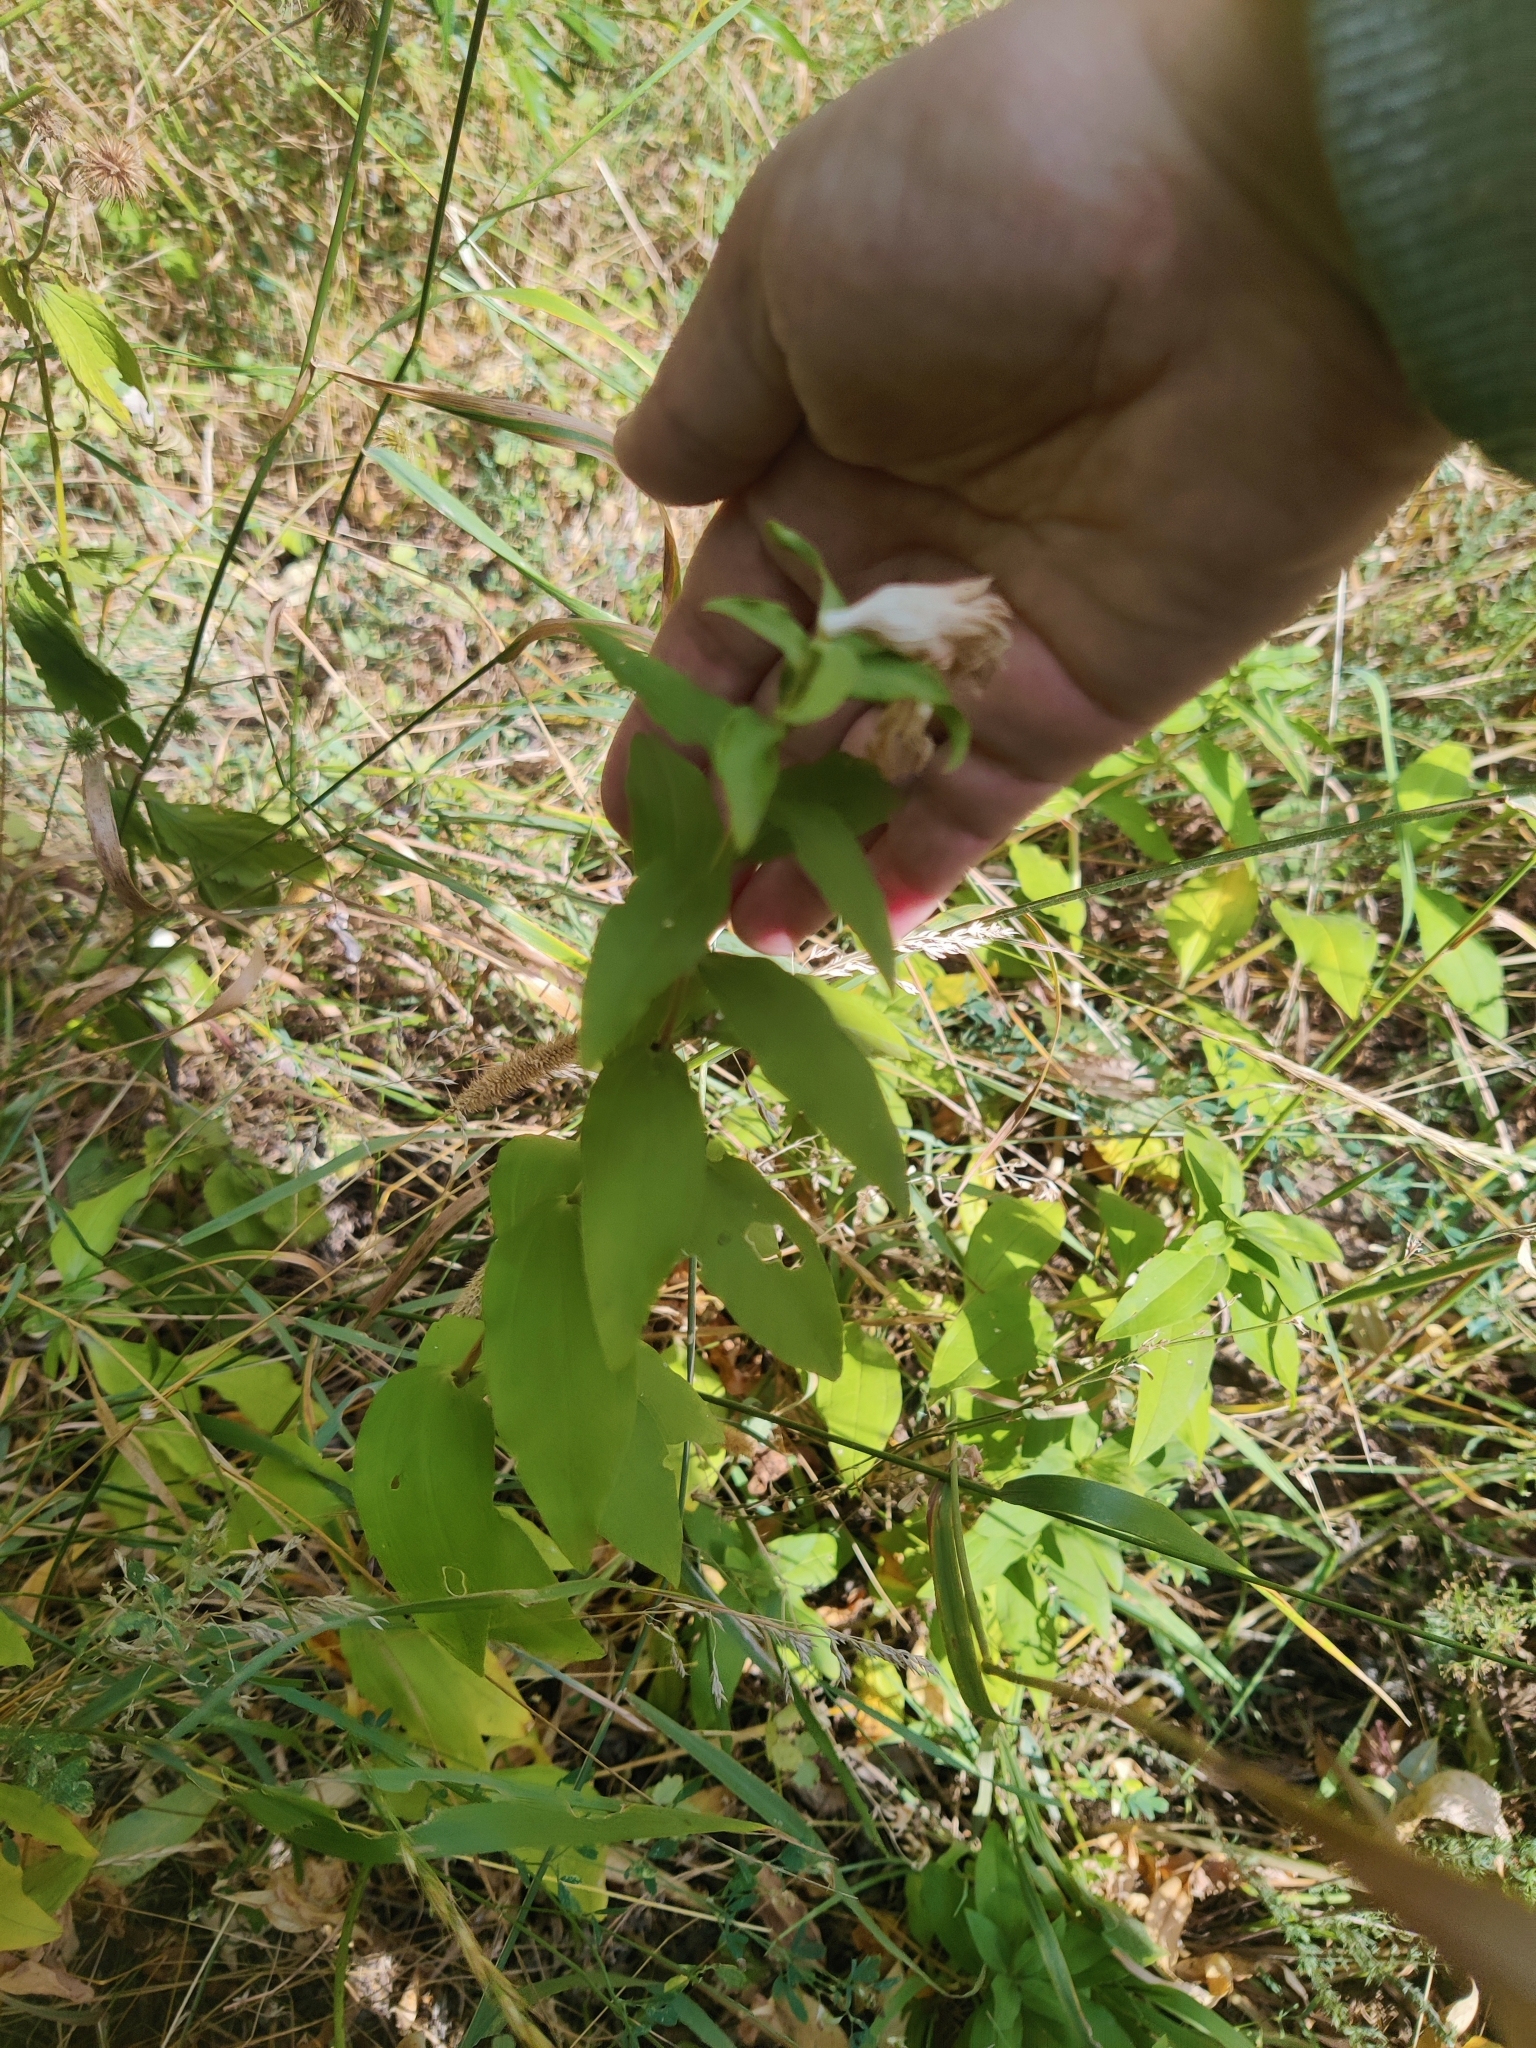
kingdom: Plantae
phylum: Tracheophyta
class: Magnoliopsida
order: Caryophyllales
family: Caryophyllaceae
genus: Saponaria
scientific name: Saponaria officinalis
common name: Soapwort
